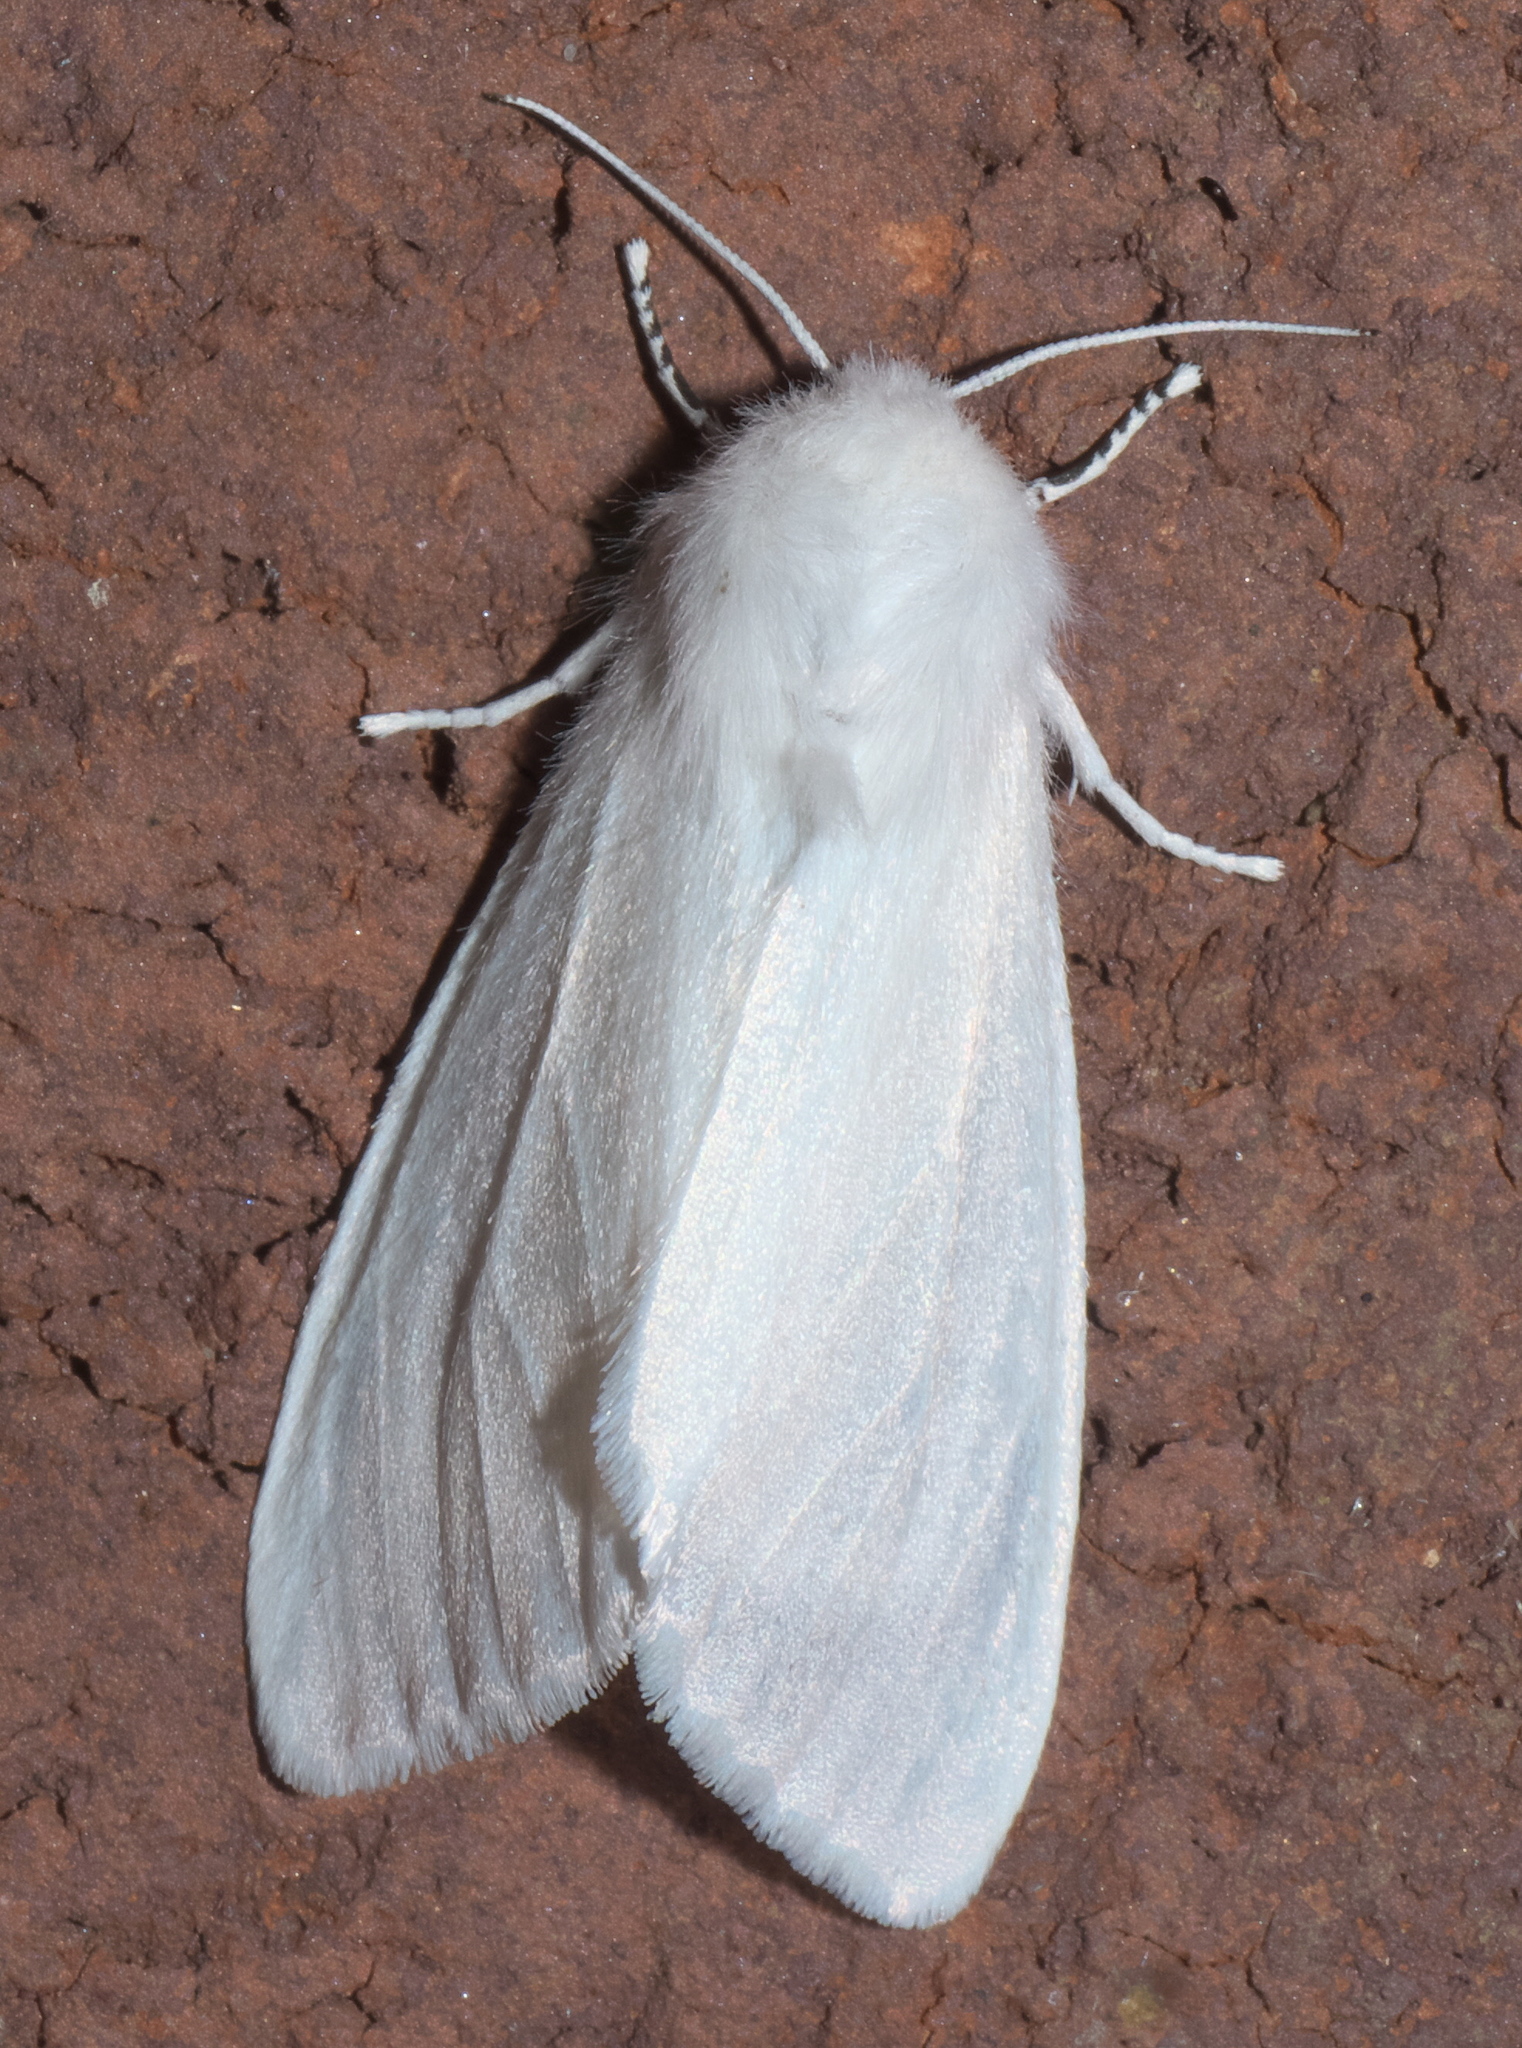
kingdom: Animalia
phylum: Arthropoda
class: Insecta
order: Lepidoptera
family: Erebidae
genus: Hyphantria
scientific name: Hyphantria cunea
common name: American white moth
